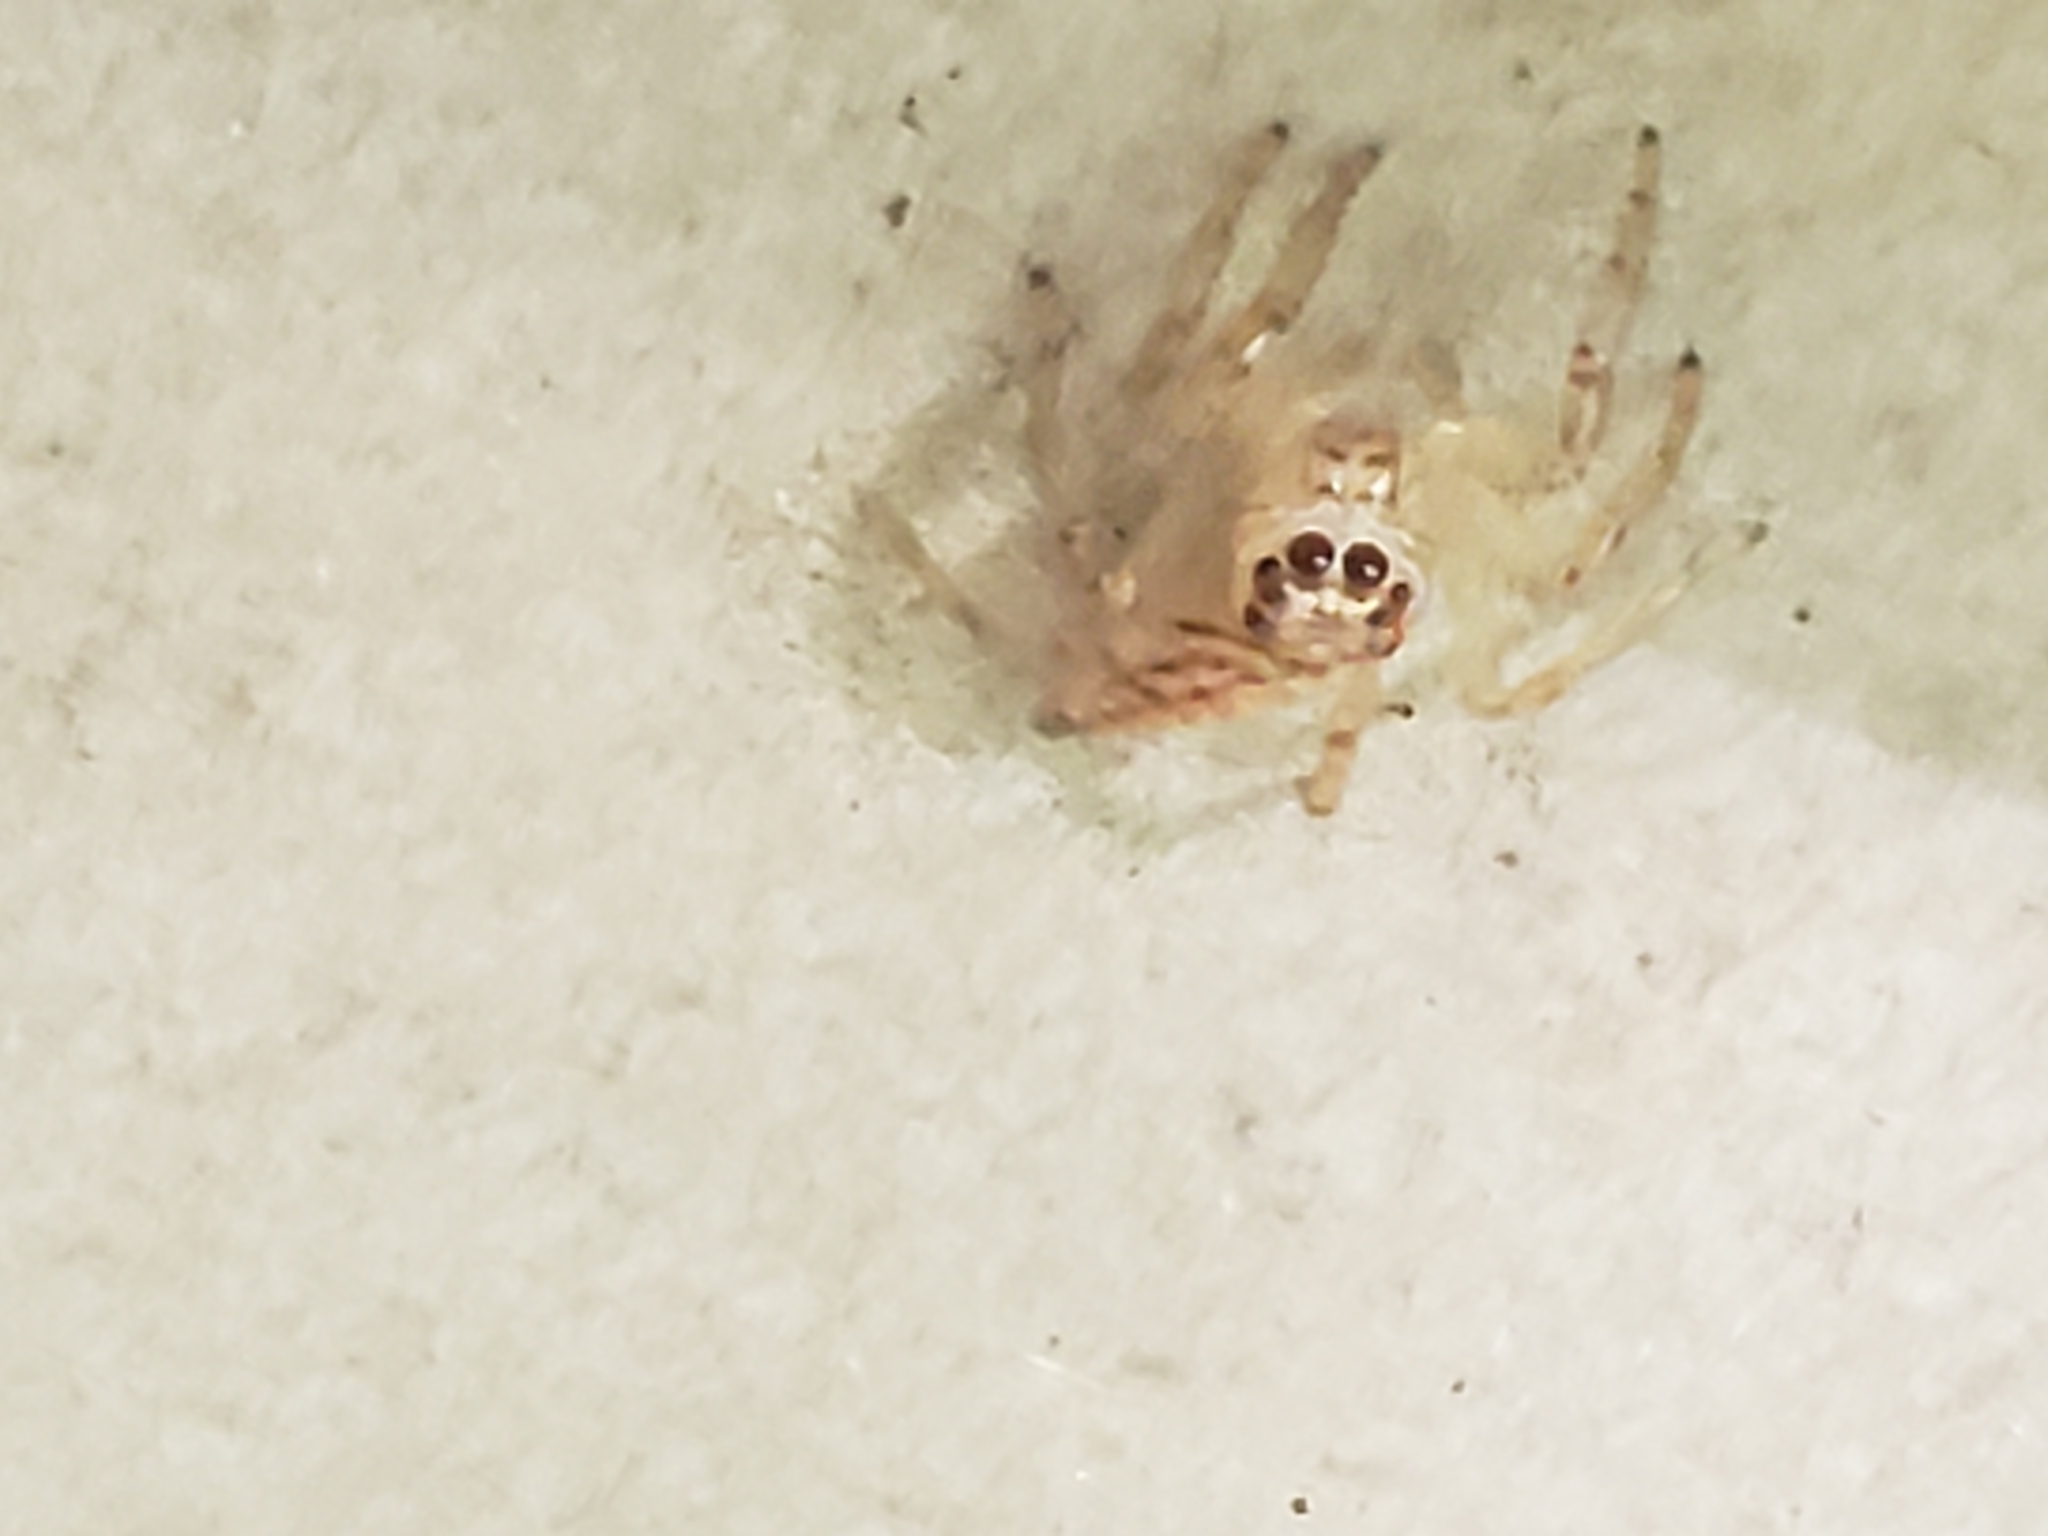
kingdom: Animalia
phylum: Arthropoda
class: Arachnida
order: Araneae
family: Salticidae
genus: Colonus
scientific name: Colonus sylvanus
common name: Jumping spiders
